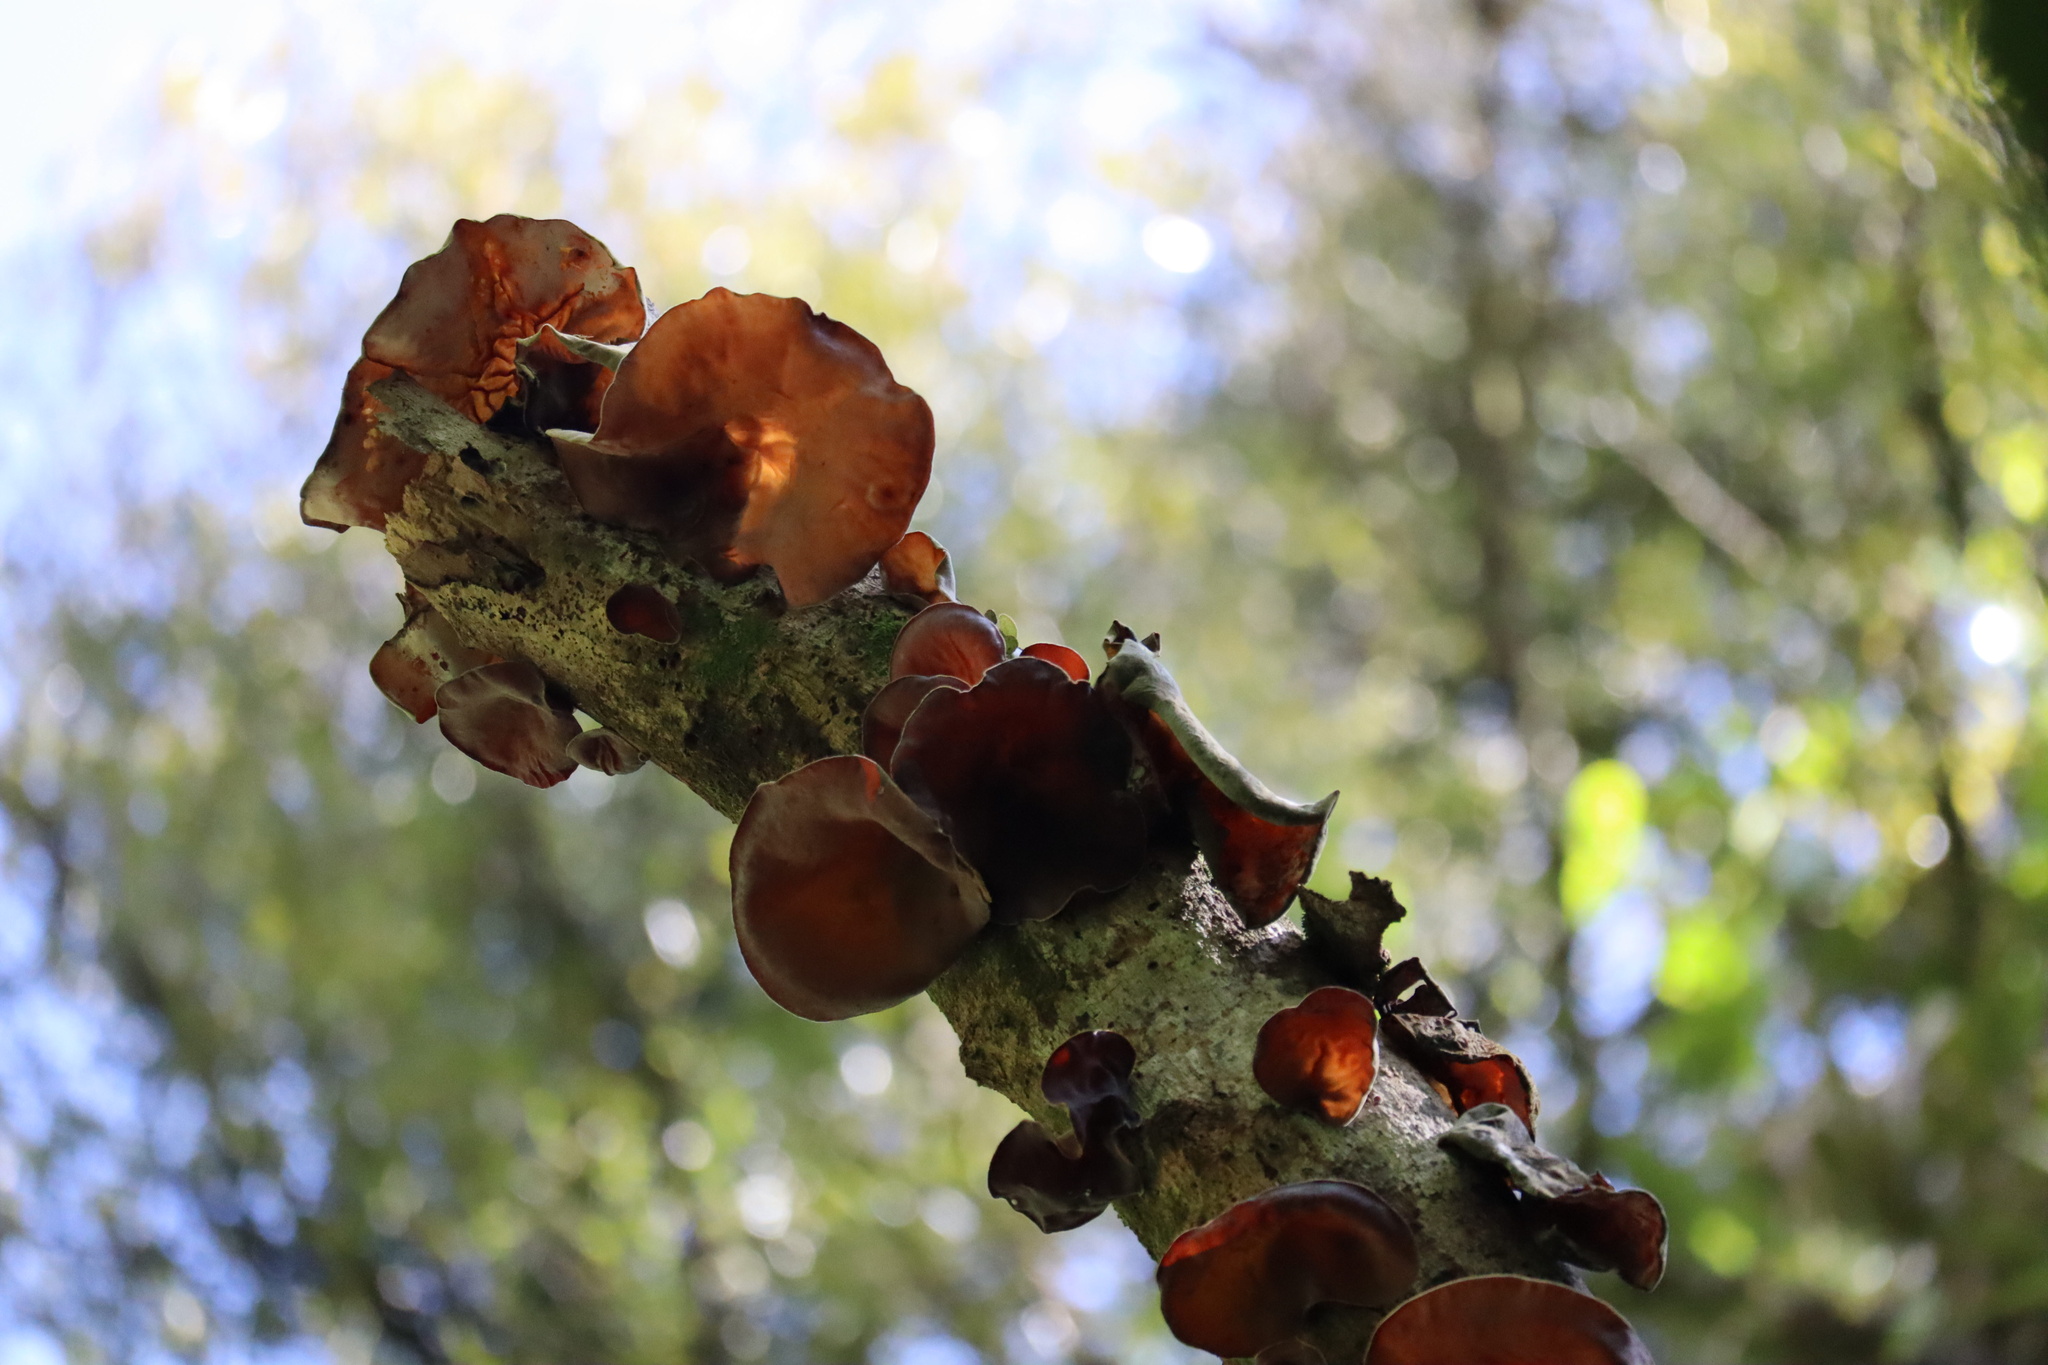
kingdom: Fungi
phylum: Basidiomycota
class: Agaricomycetes
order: Auriculariales
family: Auriculariaceae
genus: Auricularia
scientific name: Auricularia cornea
